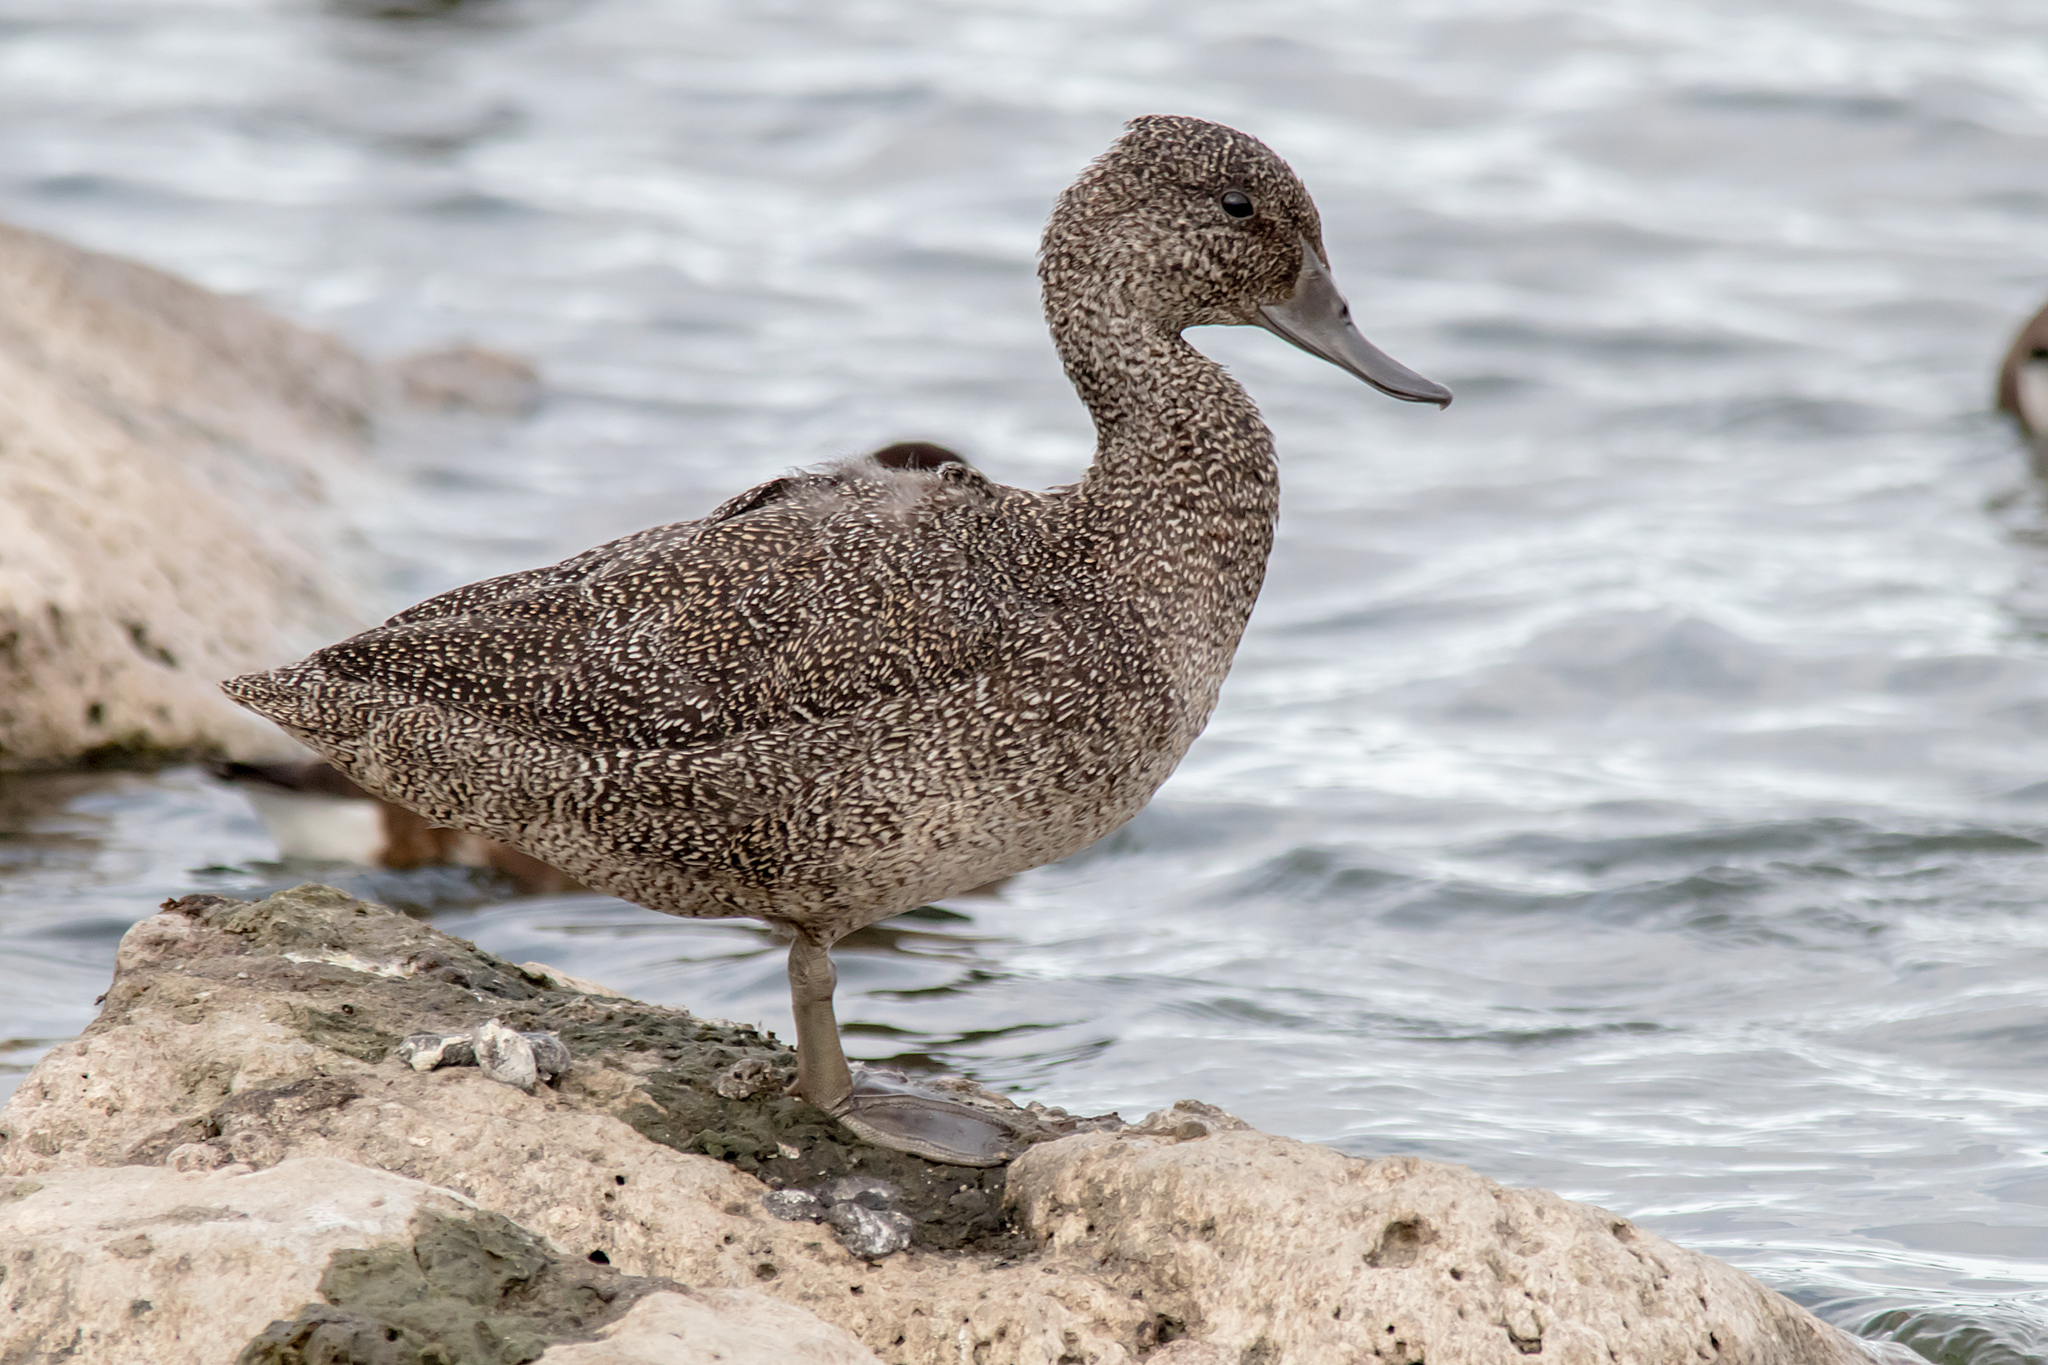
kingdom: Animalia
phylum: Chordata
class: Aves
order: Anseriformes
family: Anatidae
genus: Stictonetta
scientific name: Stictonetta naevosa
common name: Freckled duck
